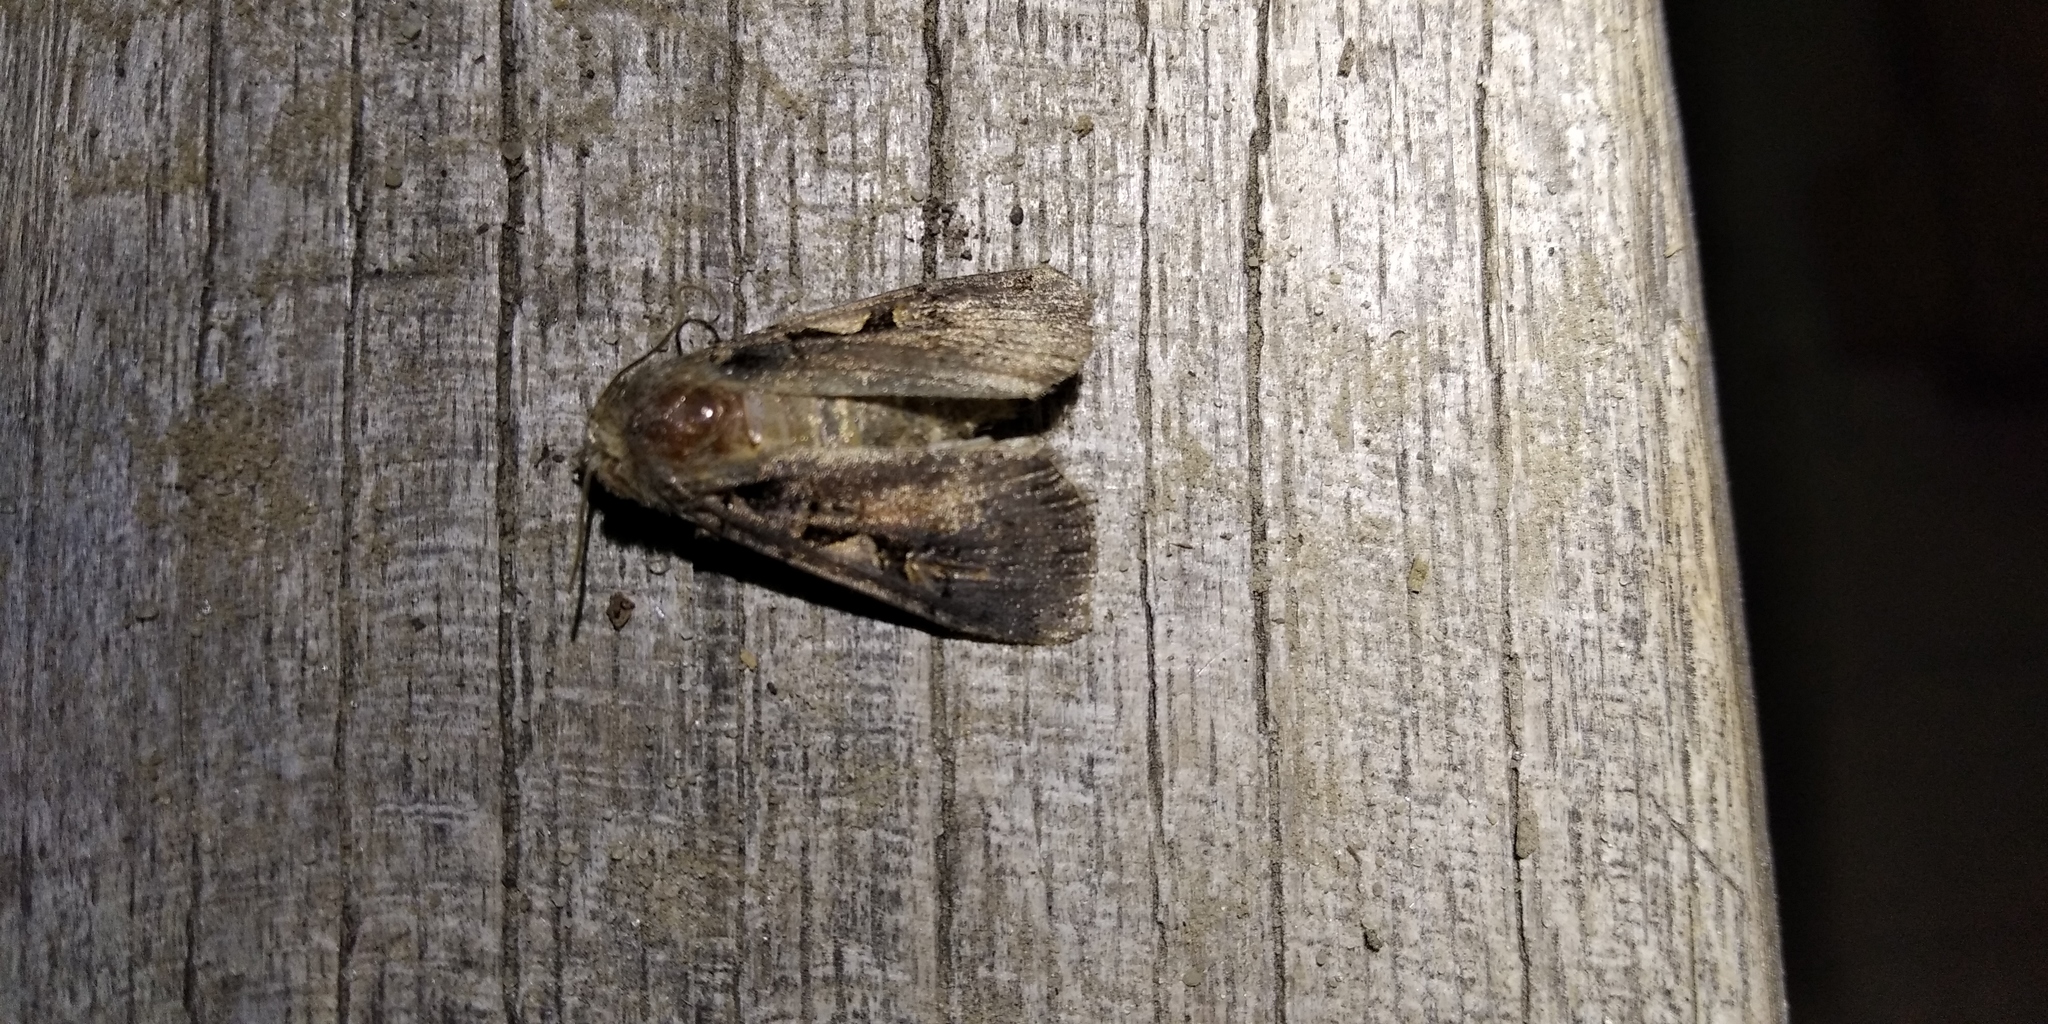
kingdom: Animalia
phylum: Arthropoda
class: Insecta
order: Lepidoptera
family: Noctuidae
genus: Xestia
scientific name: Xestia c-nigrum
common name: Setaceous hebrew character
